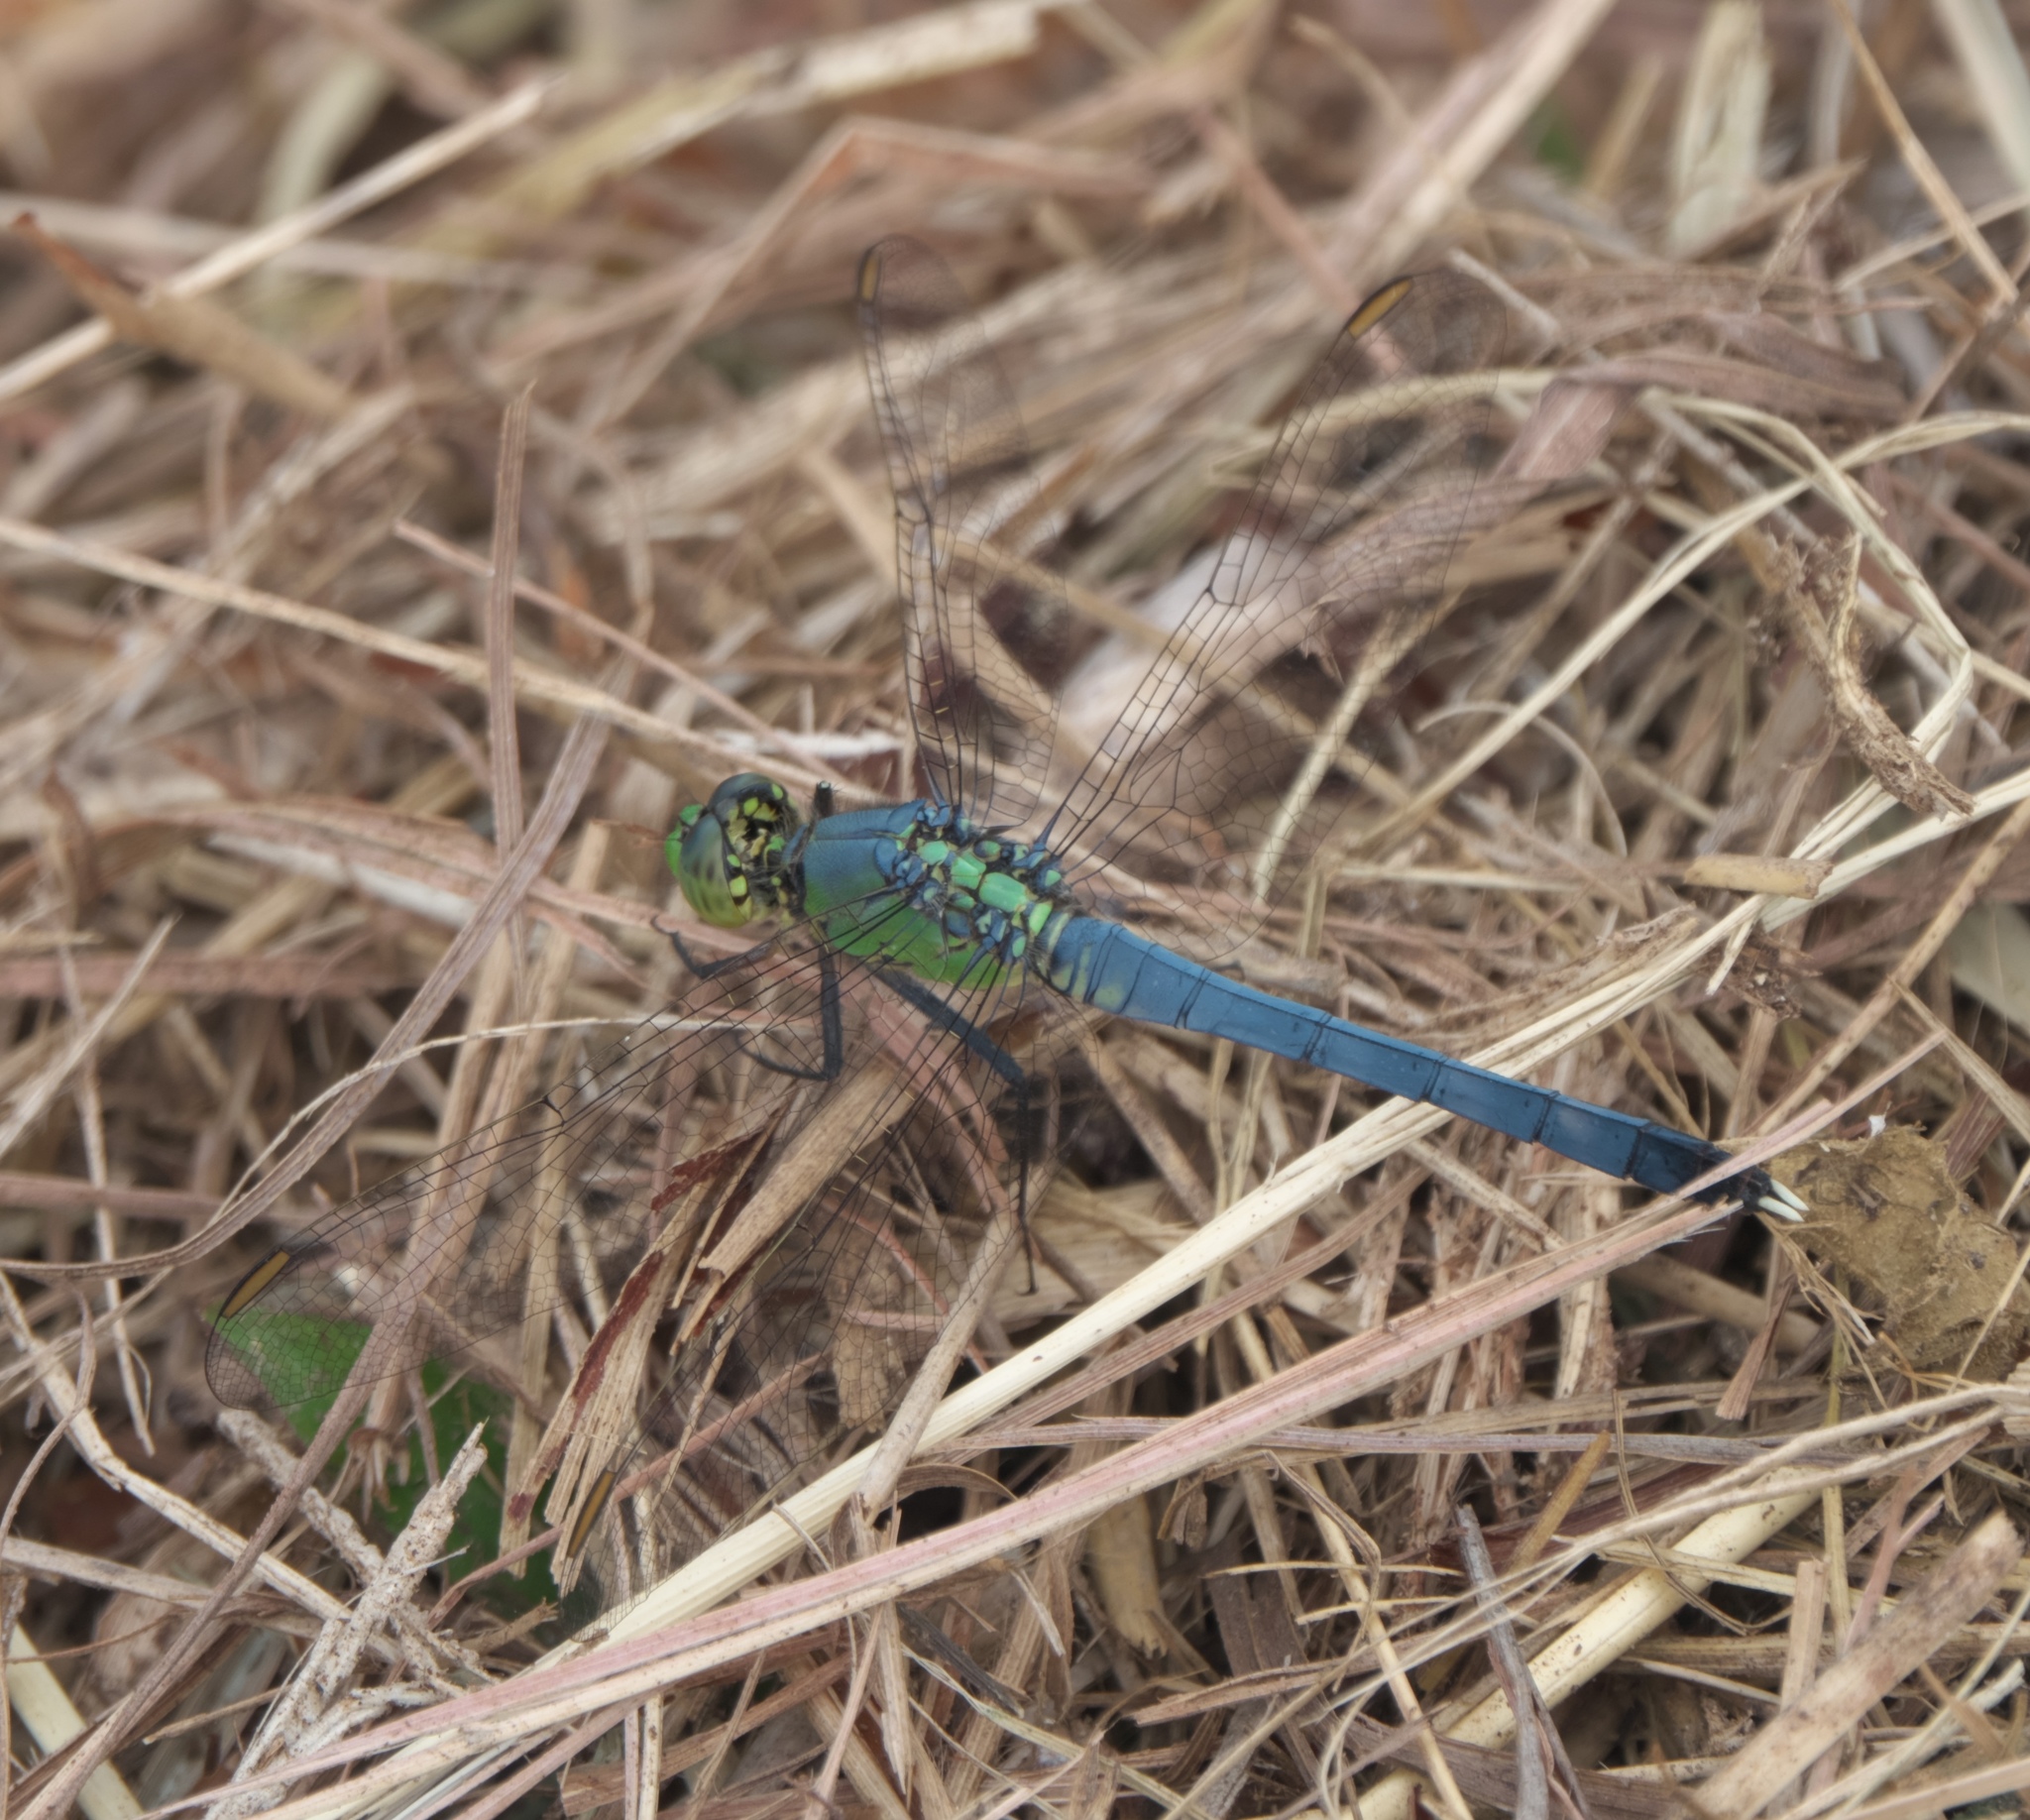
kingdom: Animalia
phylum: Arthropoda
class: Insecta
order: Odonata
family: Libellulidae
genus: Erythemis
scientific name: Erythemis simplicicollis
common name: Eastern pondhawk
